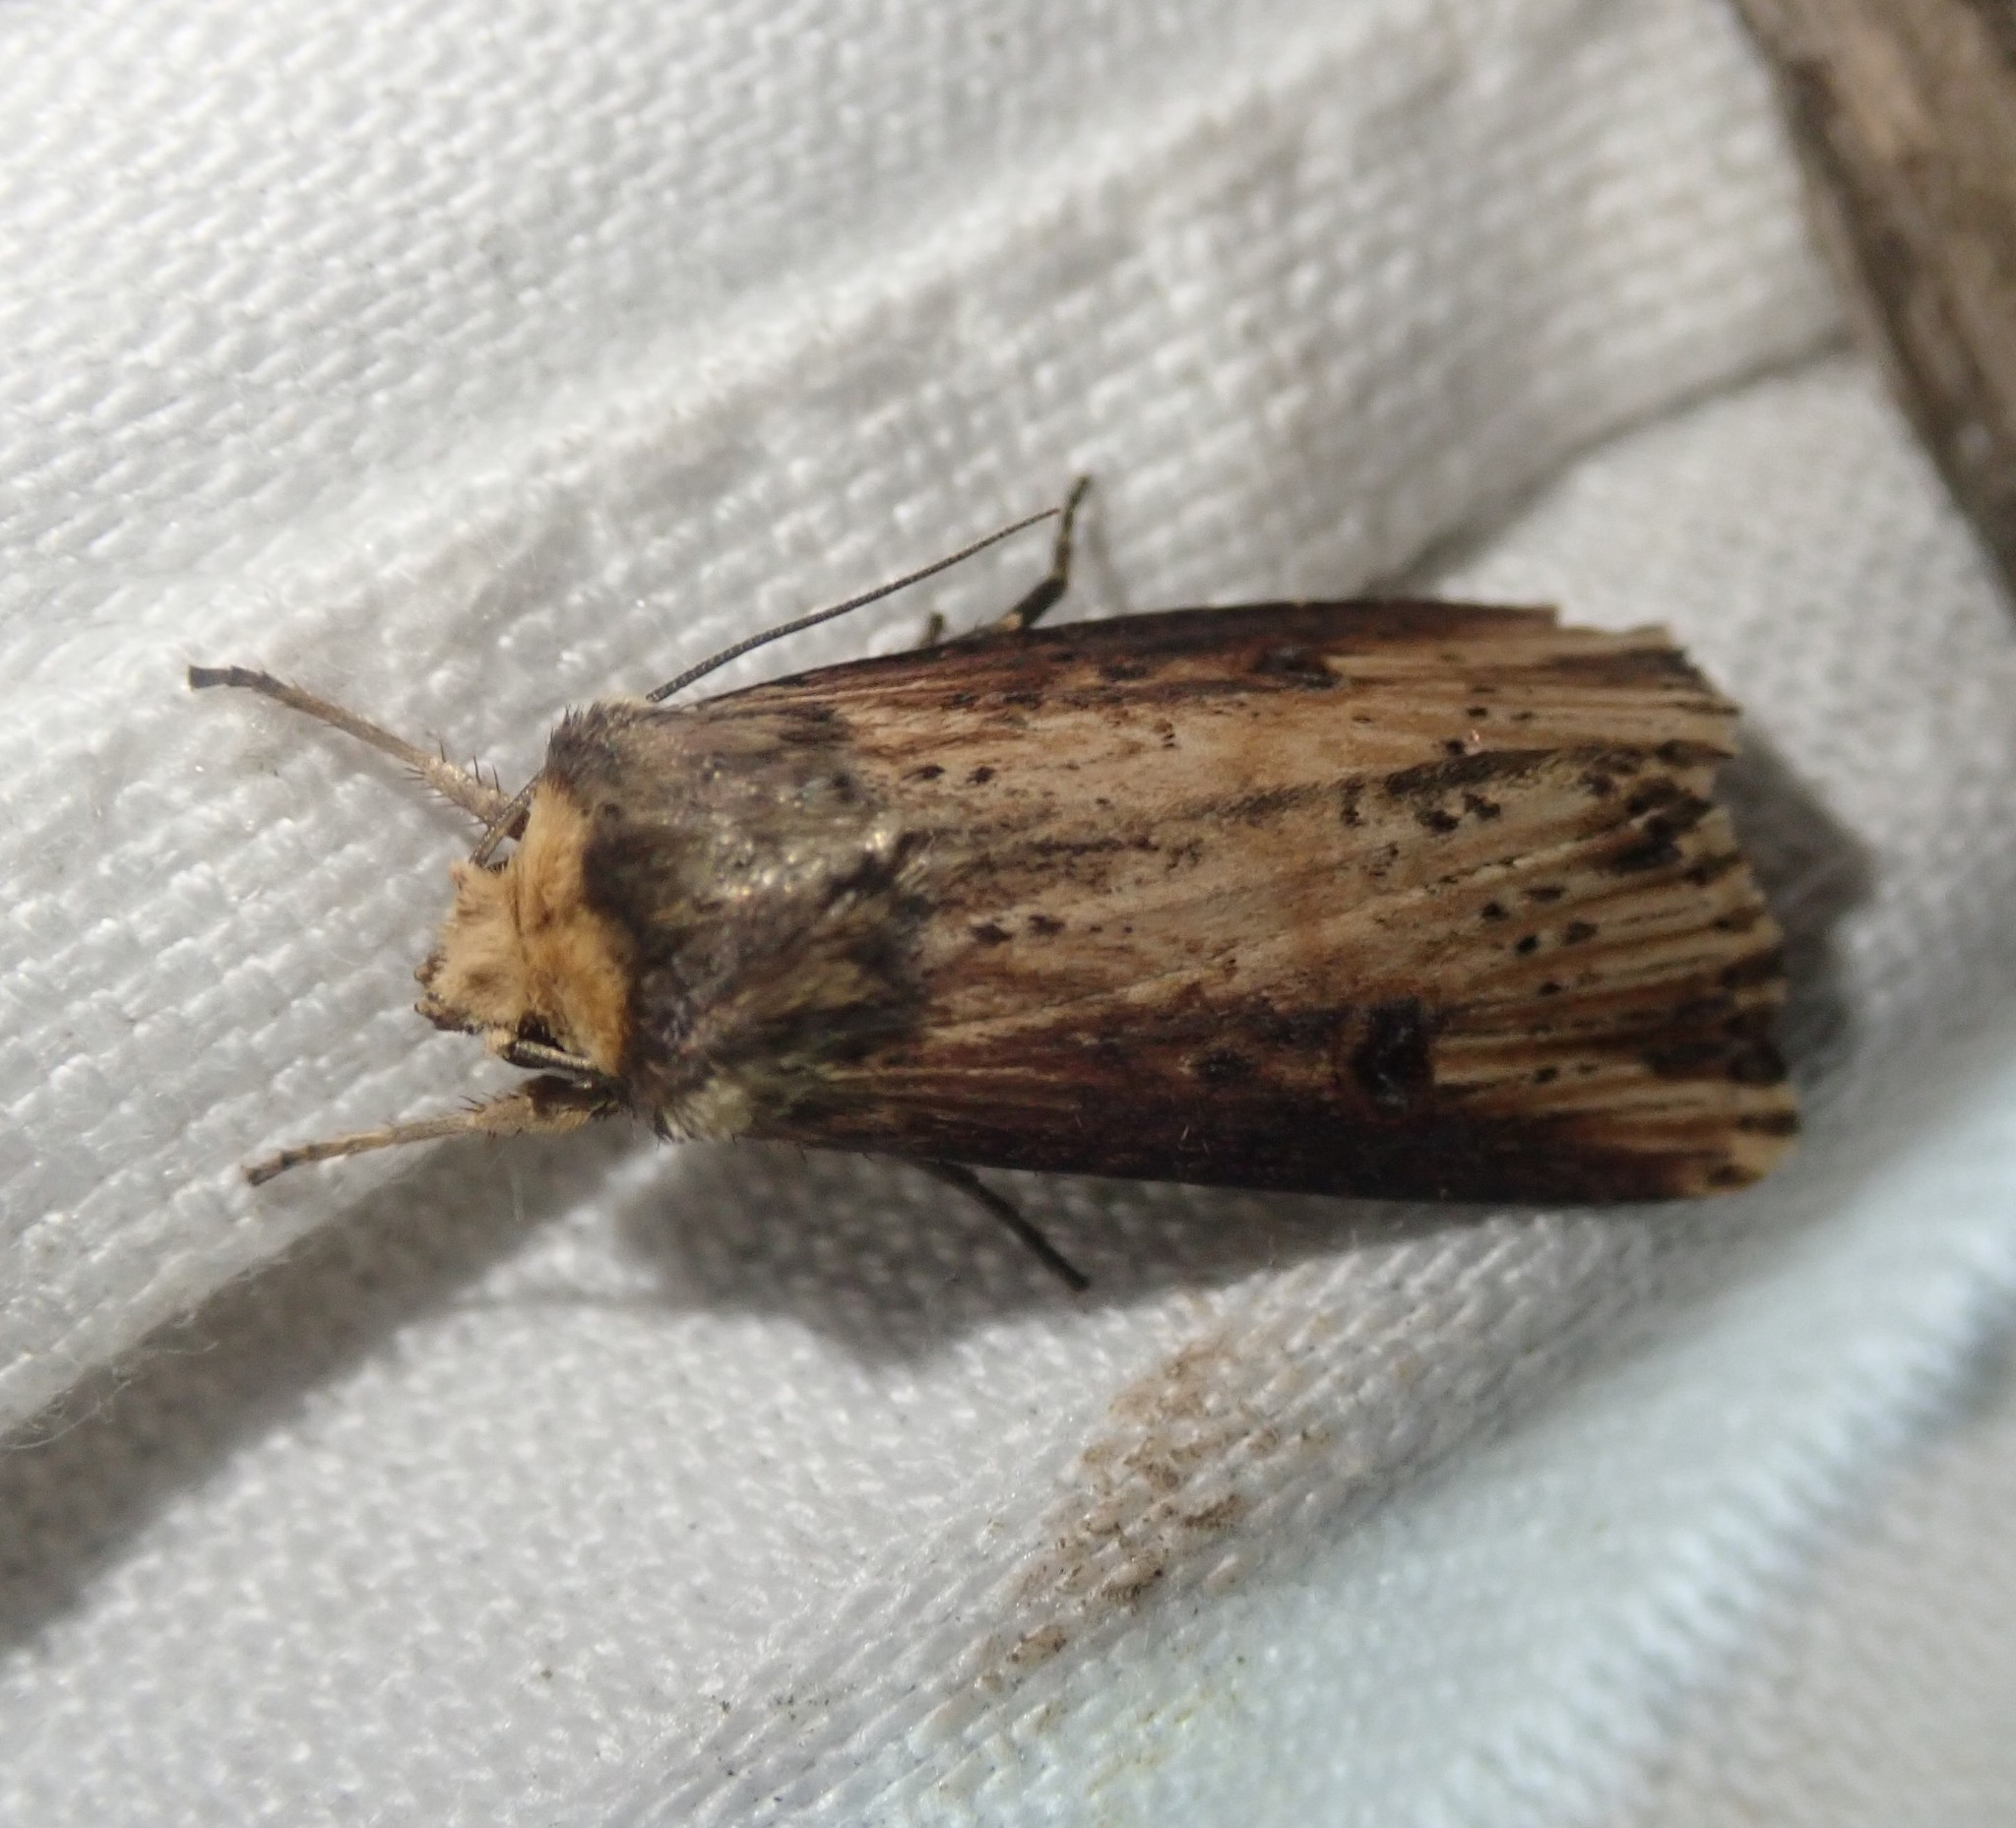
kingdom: Animalia
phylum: Arthropoda
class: Insecta
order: Lepidoptera
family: Noctuidae
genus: Axylia
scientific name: Axylia putris
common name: Flame
